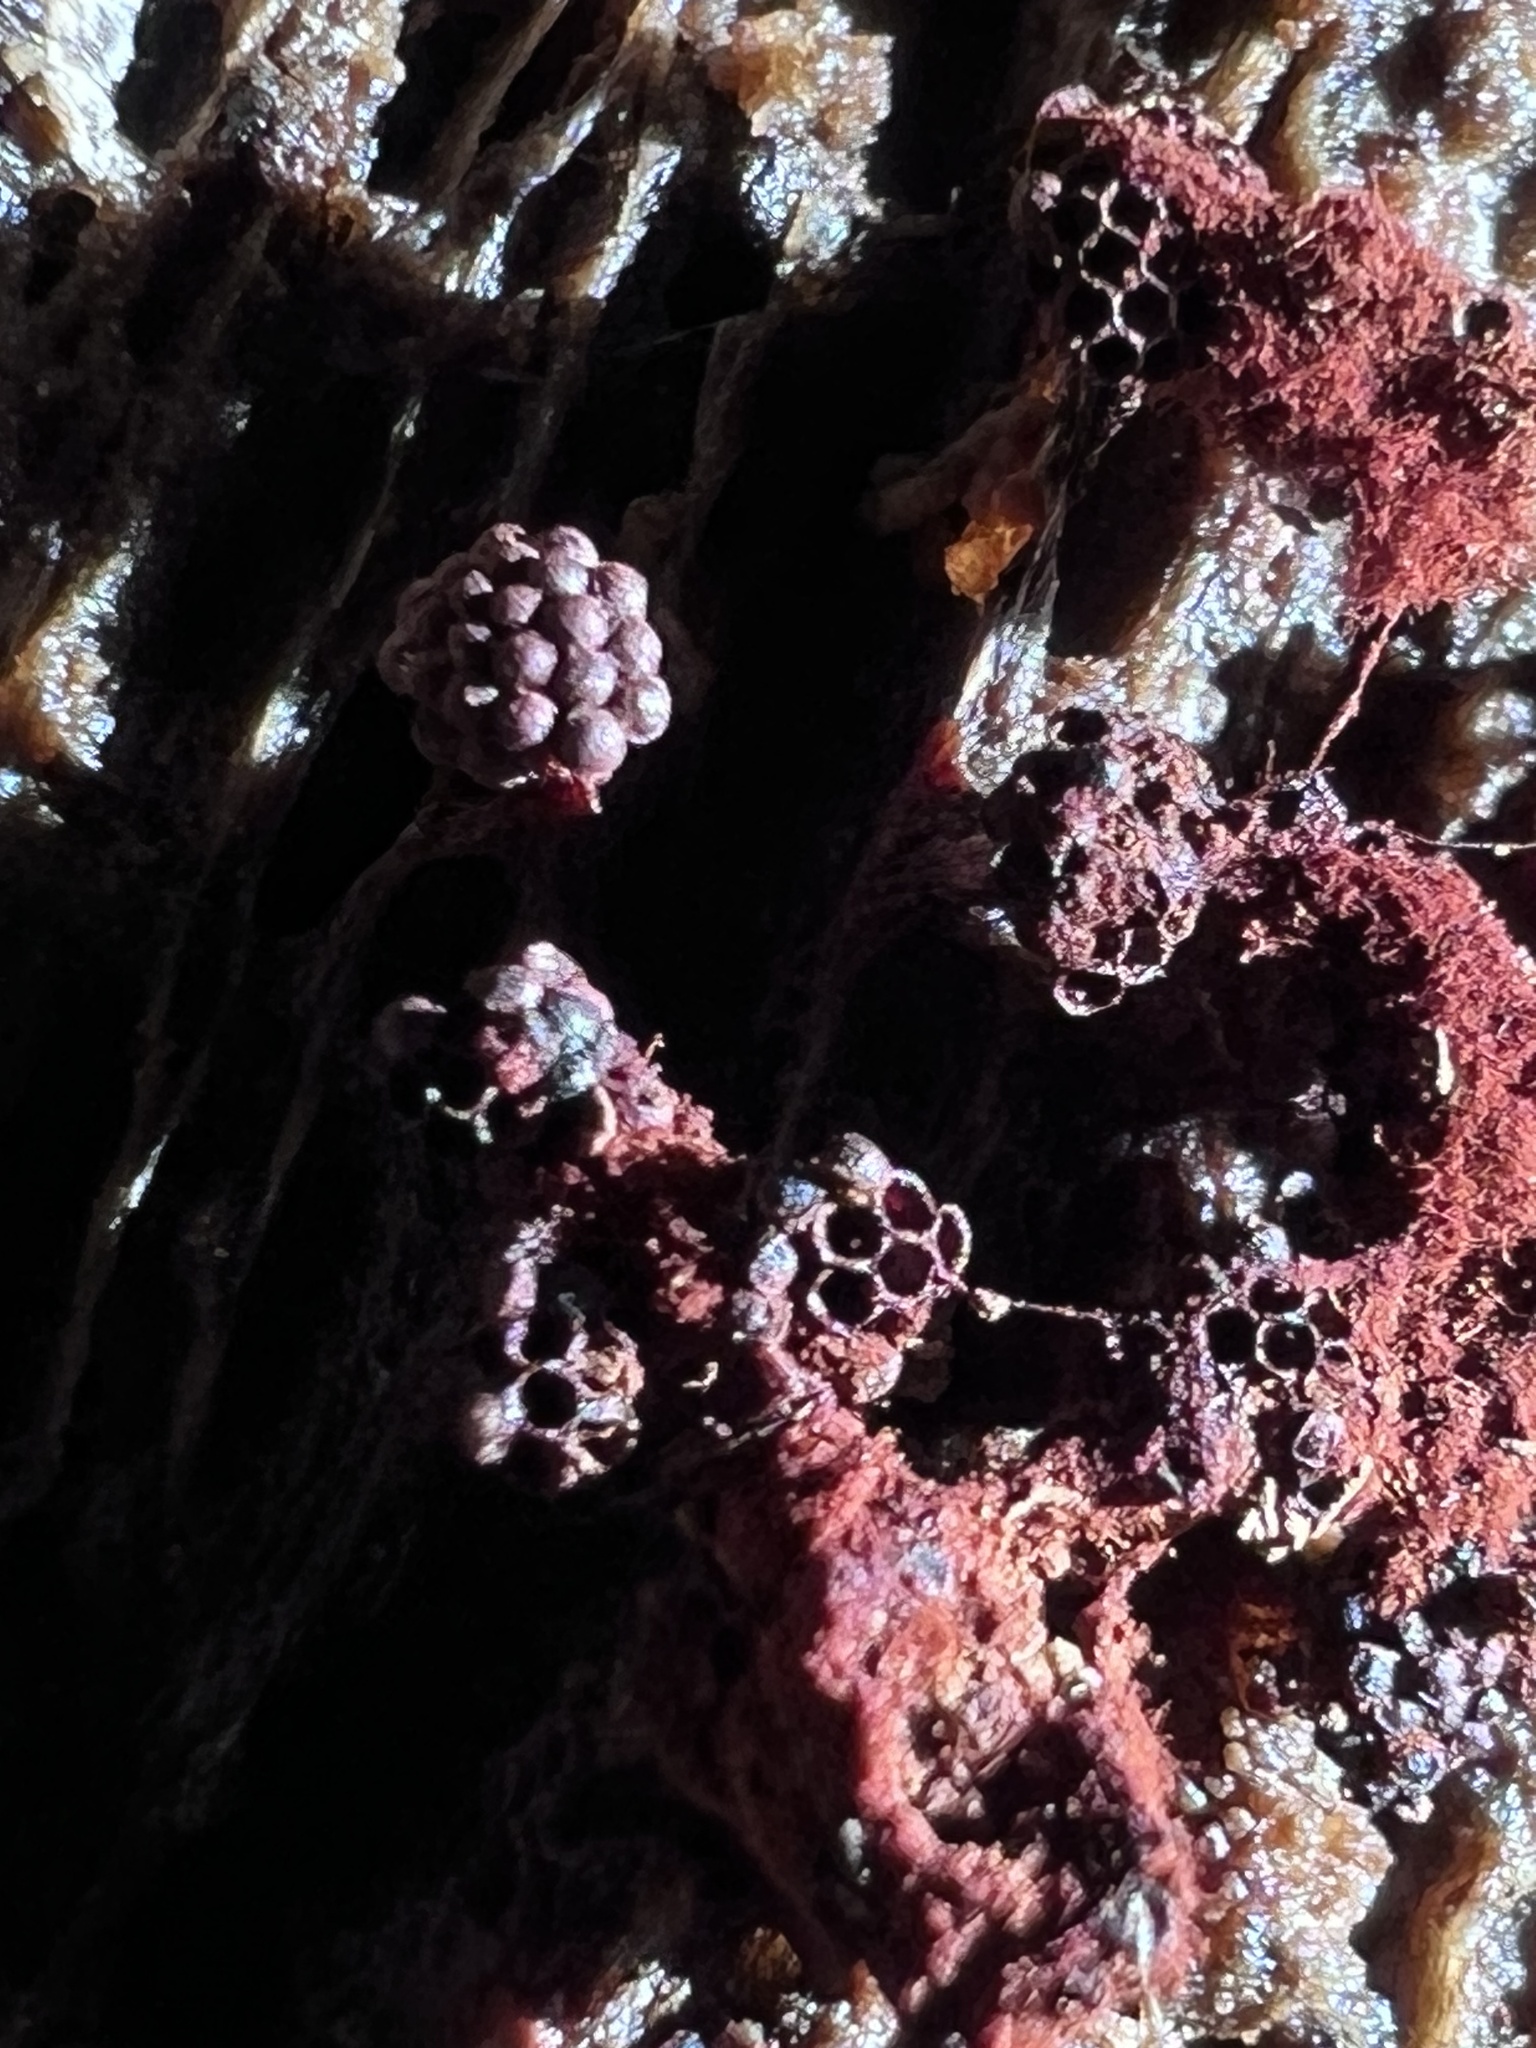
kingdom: Protozoa
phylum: Mycetozoa
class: Myxomycetes
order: Trichiales
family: Trichiaceae
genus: Metatrichia
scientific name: Metatrichia vesparia
